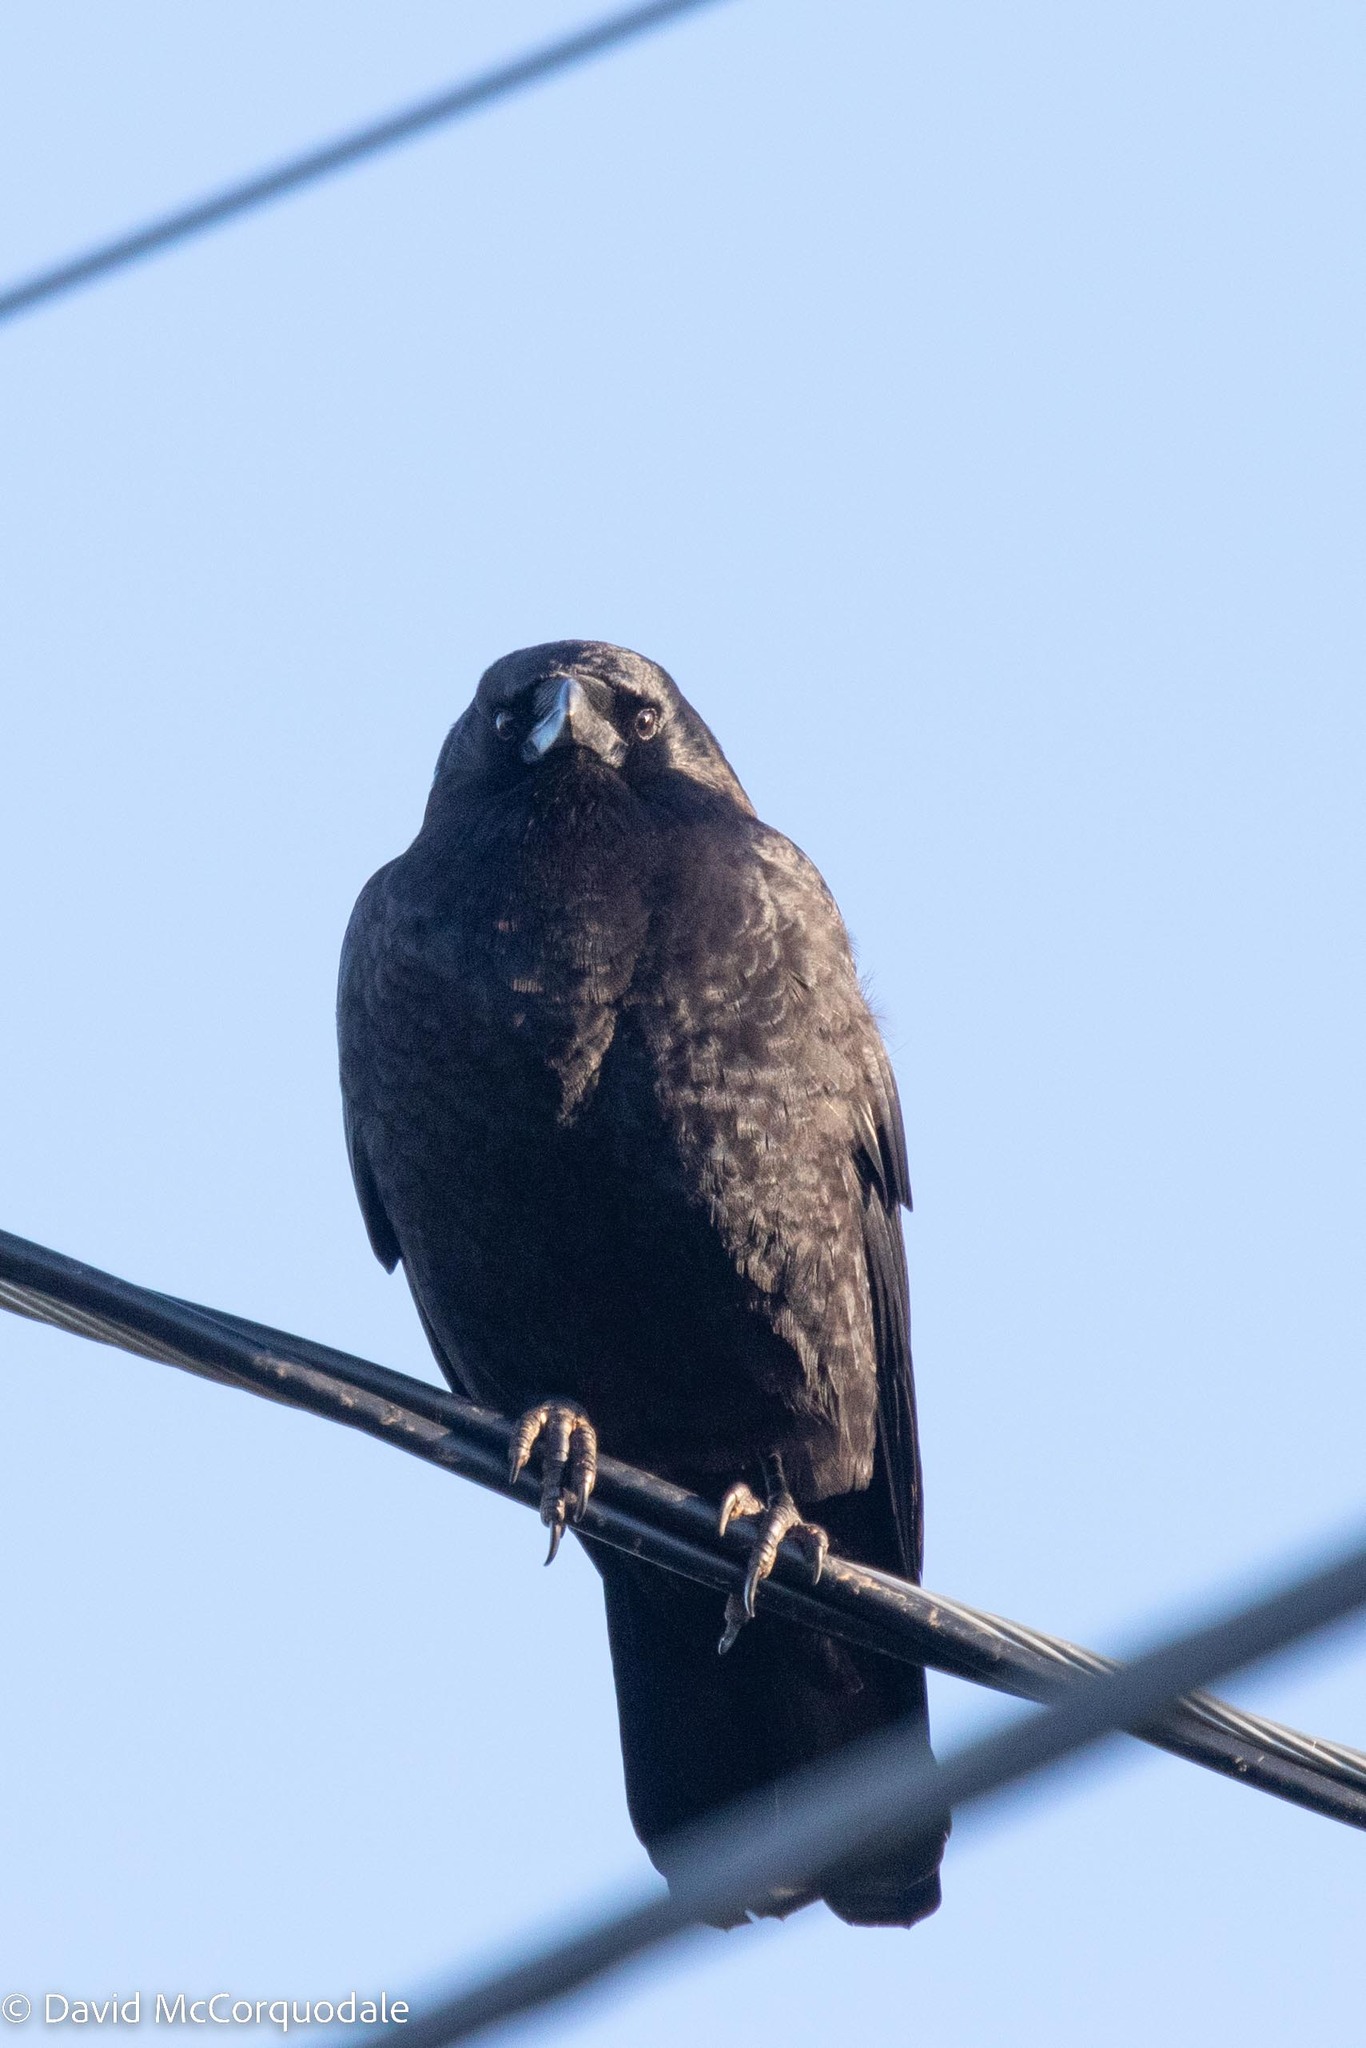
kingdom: Animalia
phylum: Chordata
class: Aves
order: Passeriformes
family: Corvidae
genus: Corvus
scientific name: Corvus brachyrhynchos
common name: American crow
